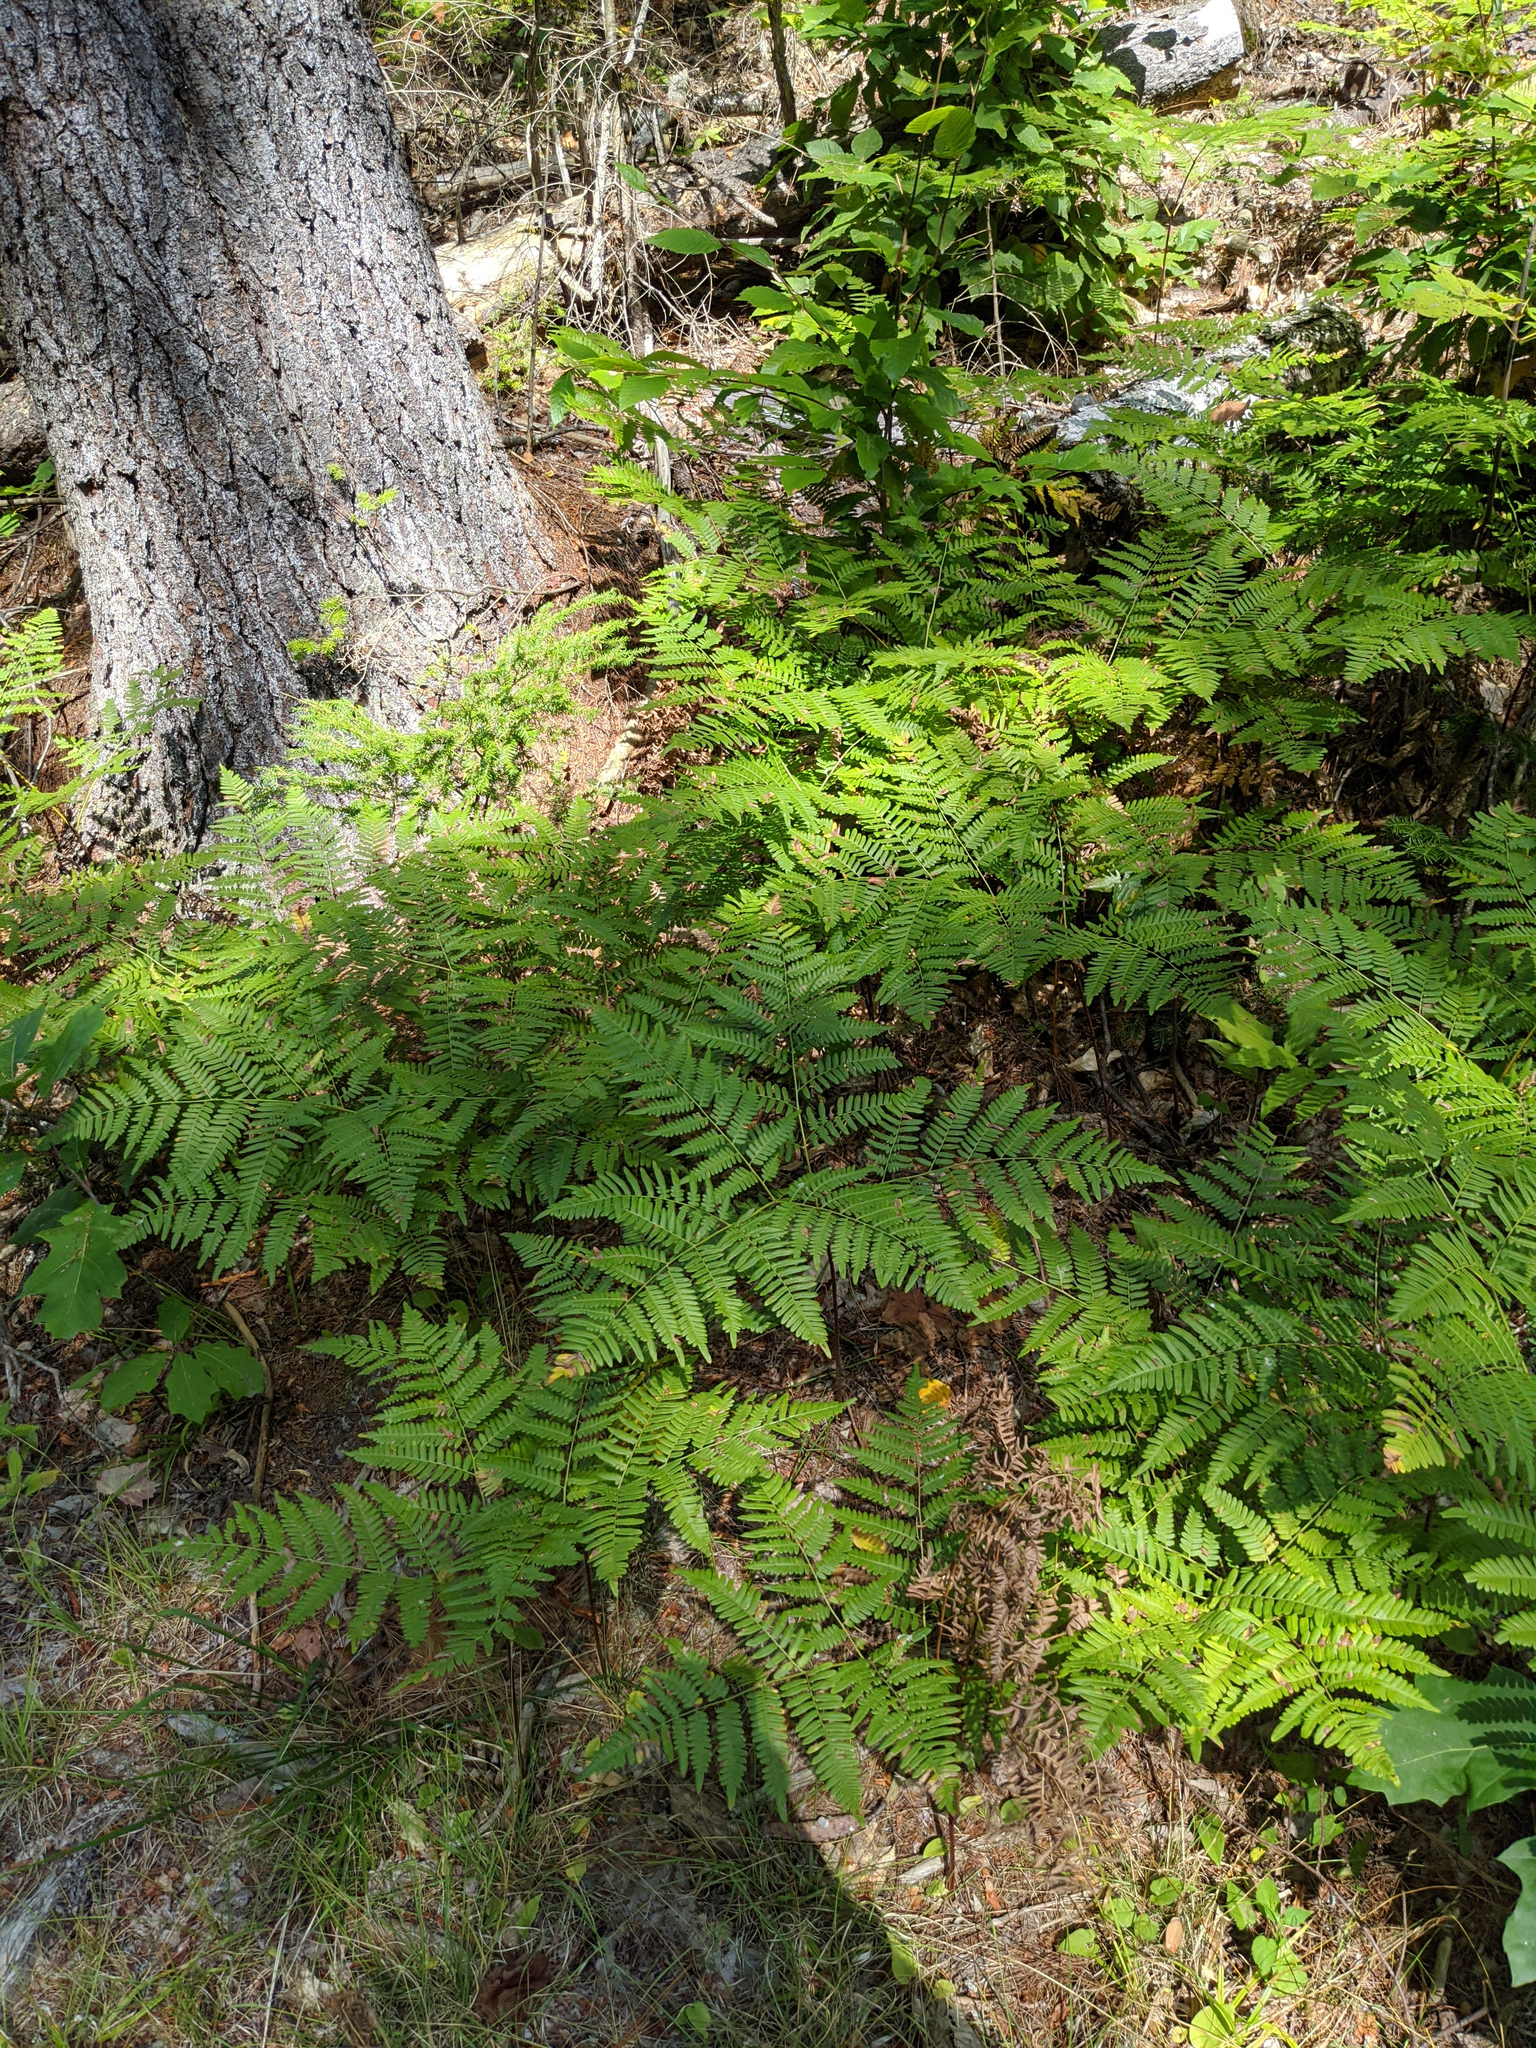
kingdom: Plantae
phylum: Tracheophyta
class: Polypodiopsida
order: Polypodiales
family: Dennstaedtiaceae
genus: Pteridium
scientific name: Pteridium aquilinum
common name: Bracken
